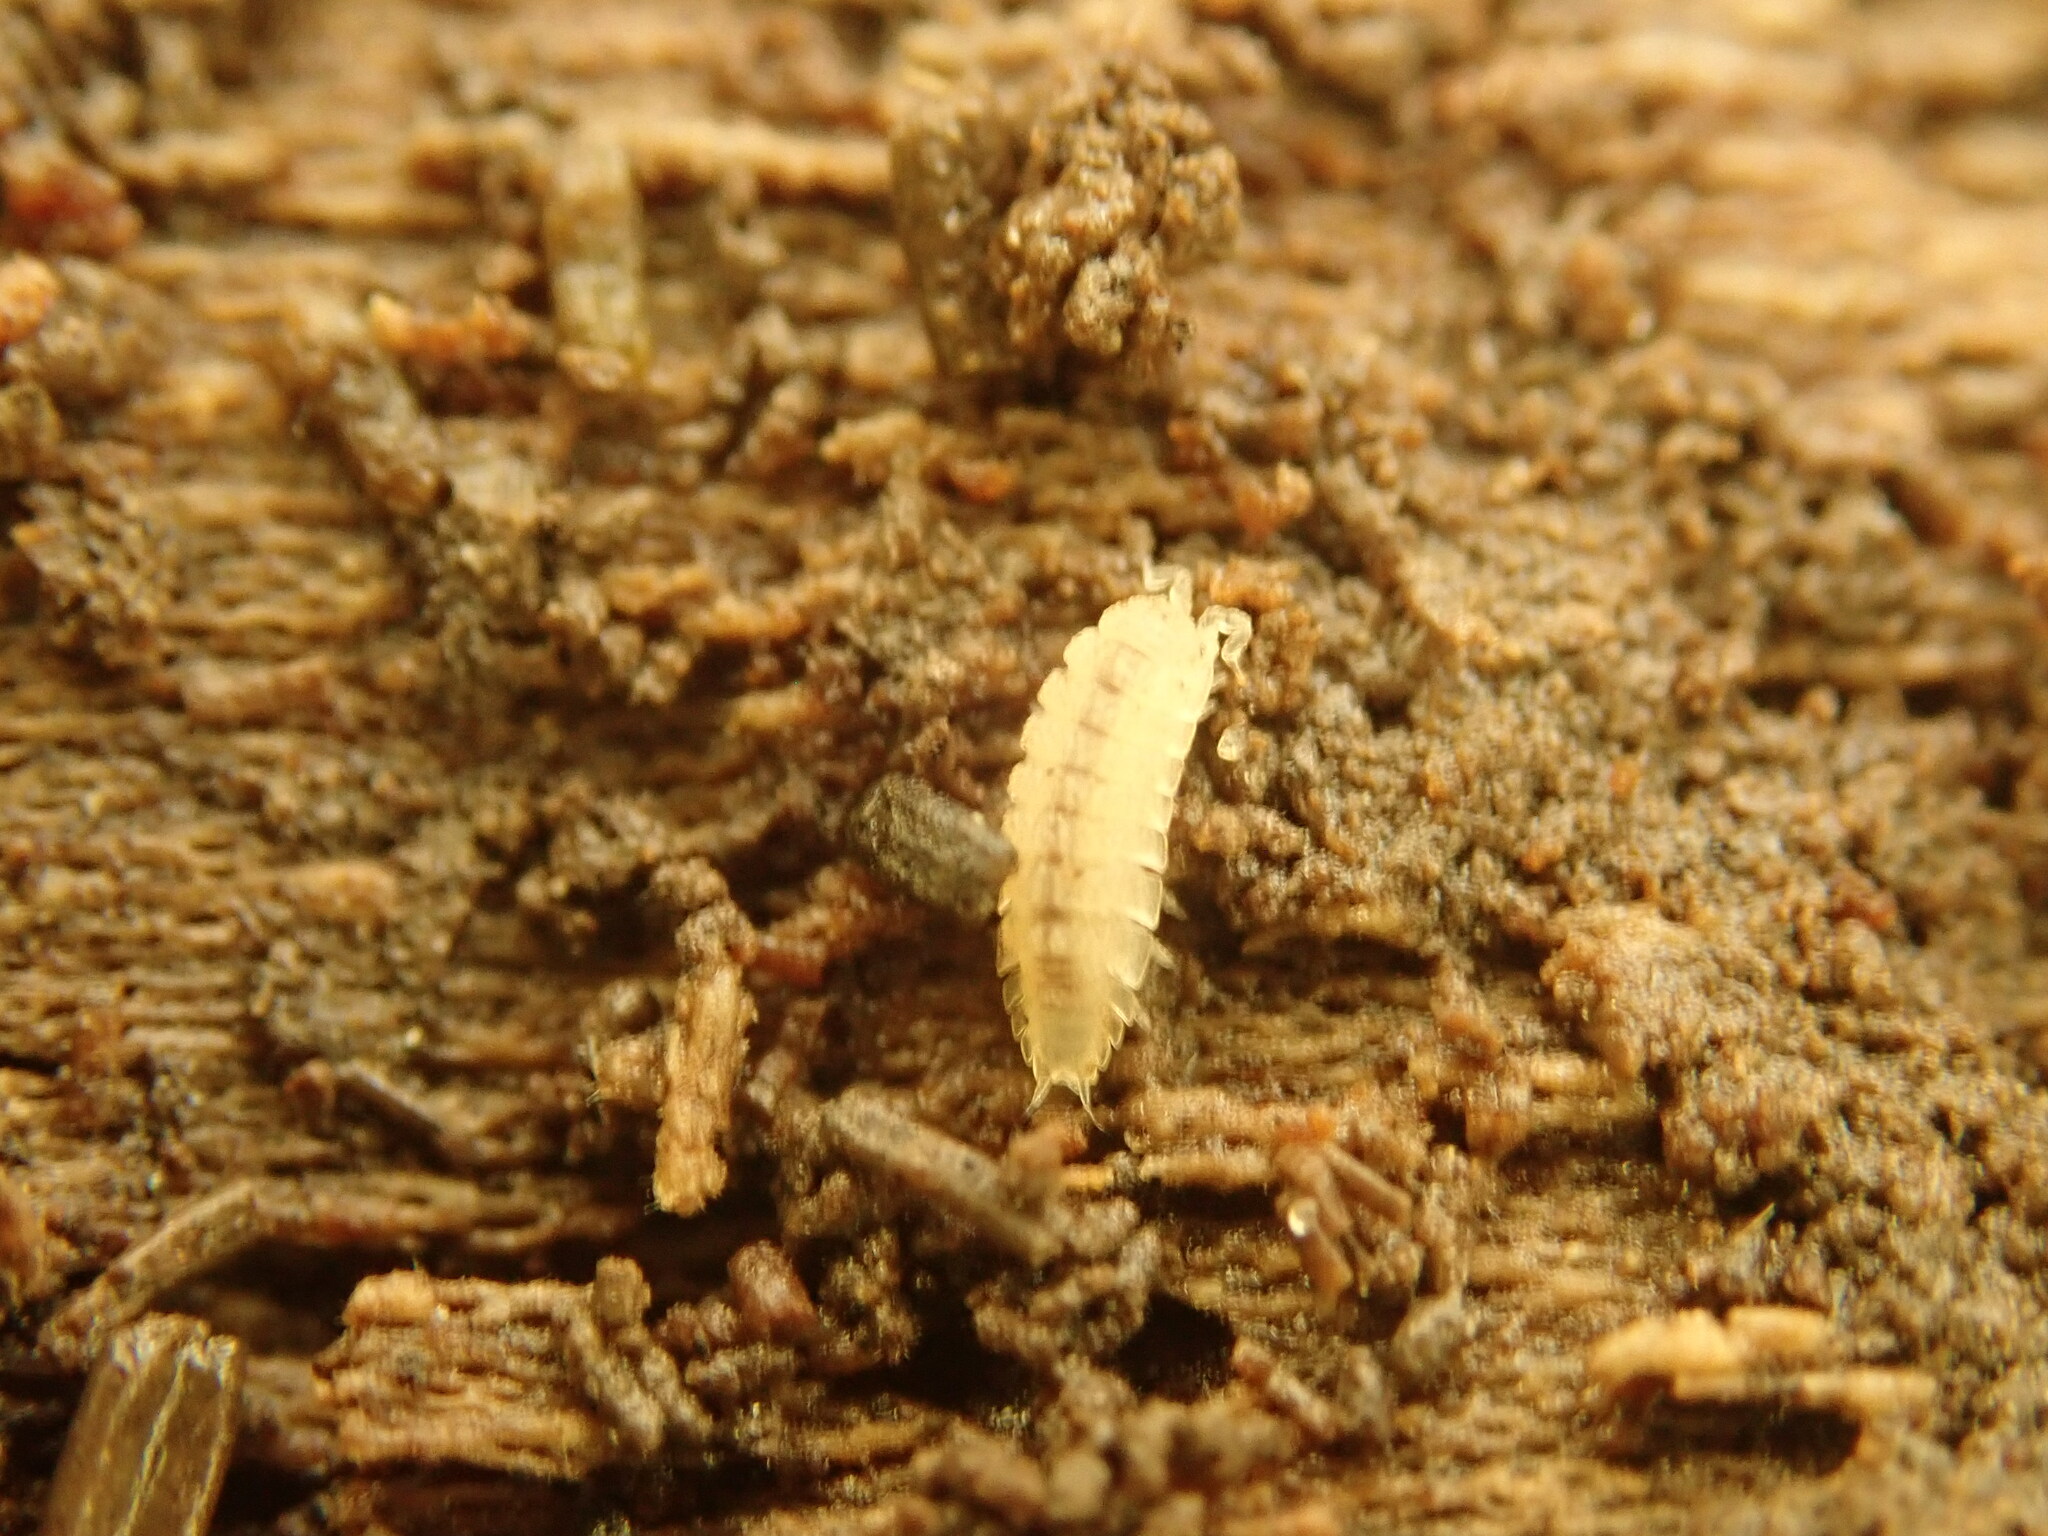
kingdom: Animalia
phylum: Arthropoda
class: Malacostraca
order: Isopoda
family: Trichoniscidae
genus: Haplophthalmus
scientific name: Haplophthalmus danicus
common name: Pillbug
